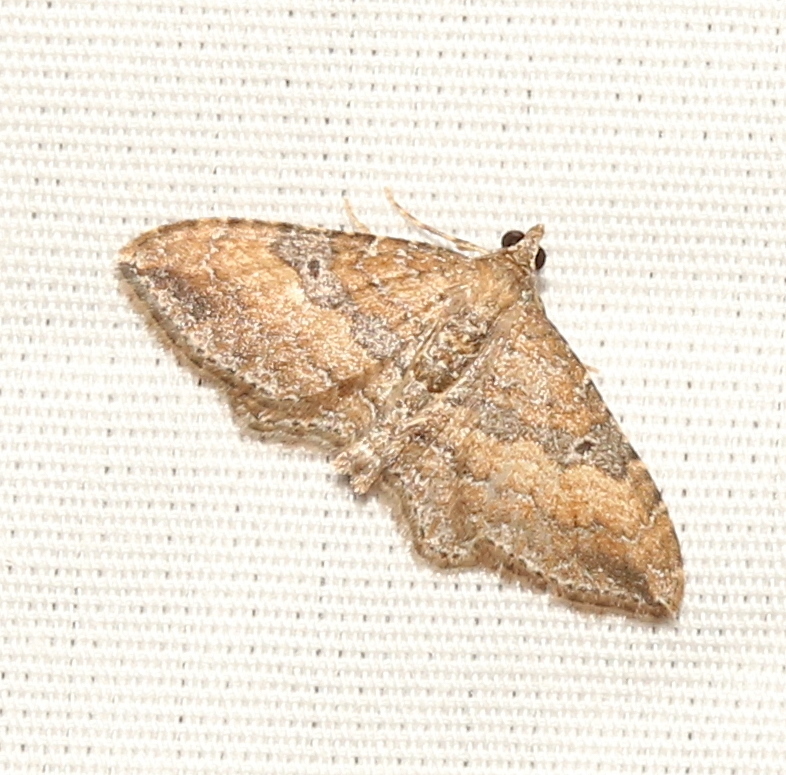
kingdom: Animalia
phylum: Arthropoda
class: Insecta
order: Lepidoptera
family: Geometridae
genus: Orthonama
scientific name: Orthonama obstipata
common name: The gem
